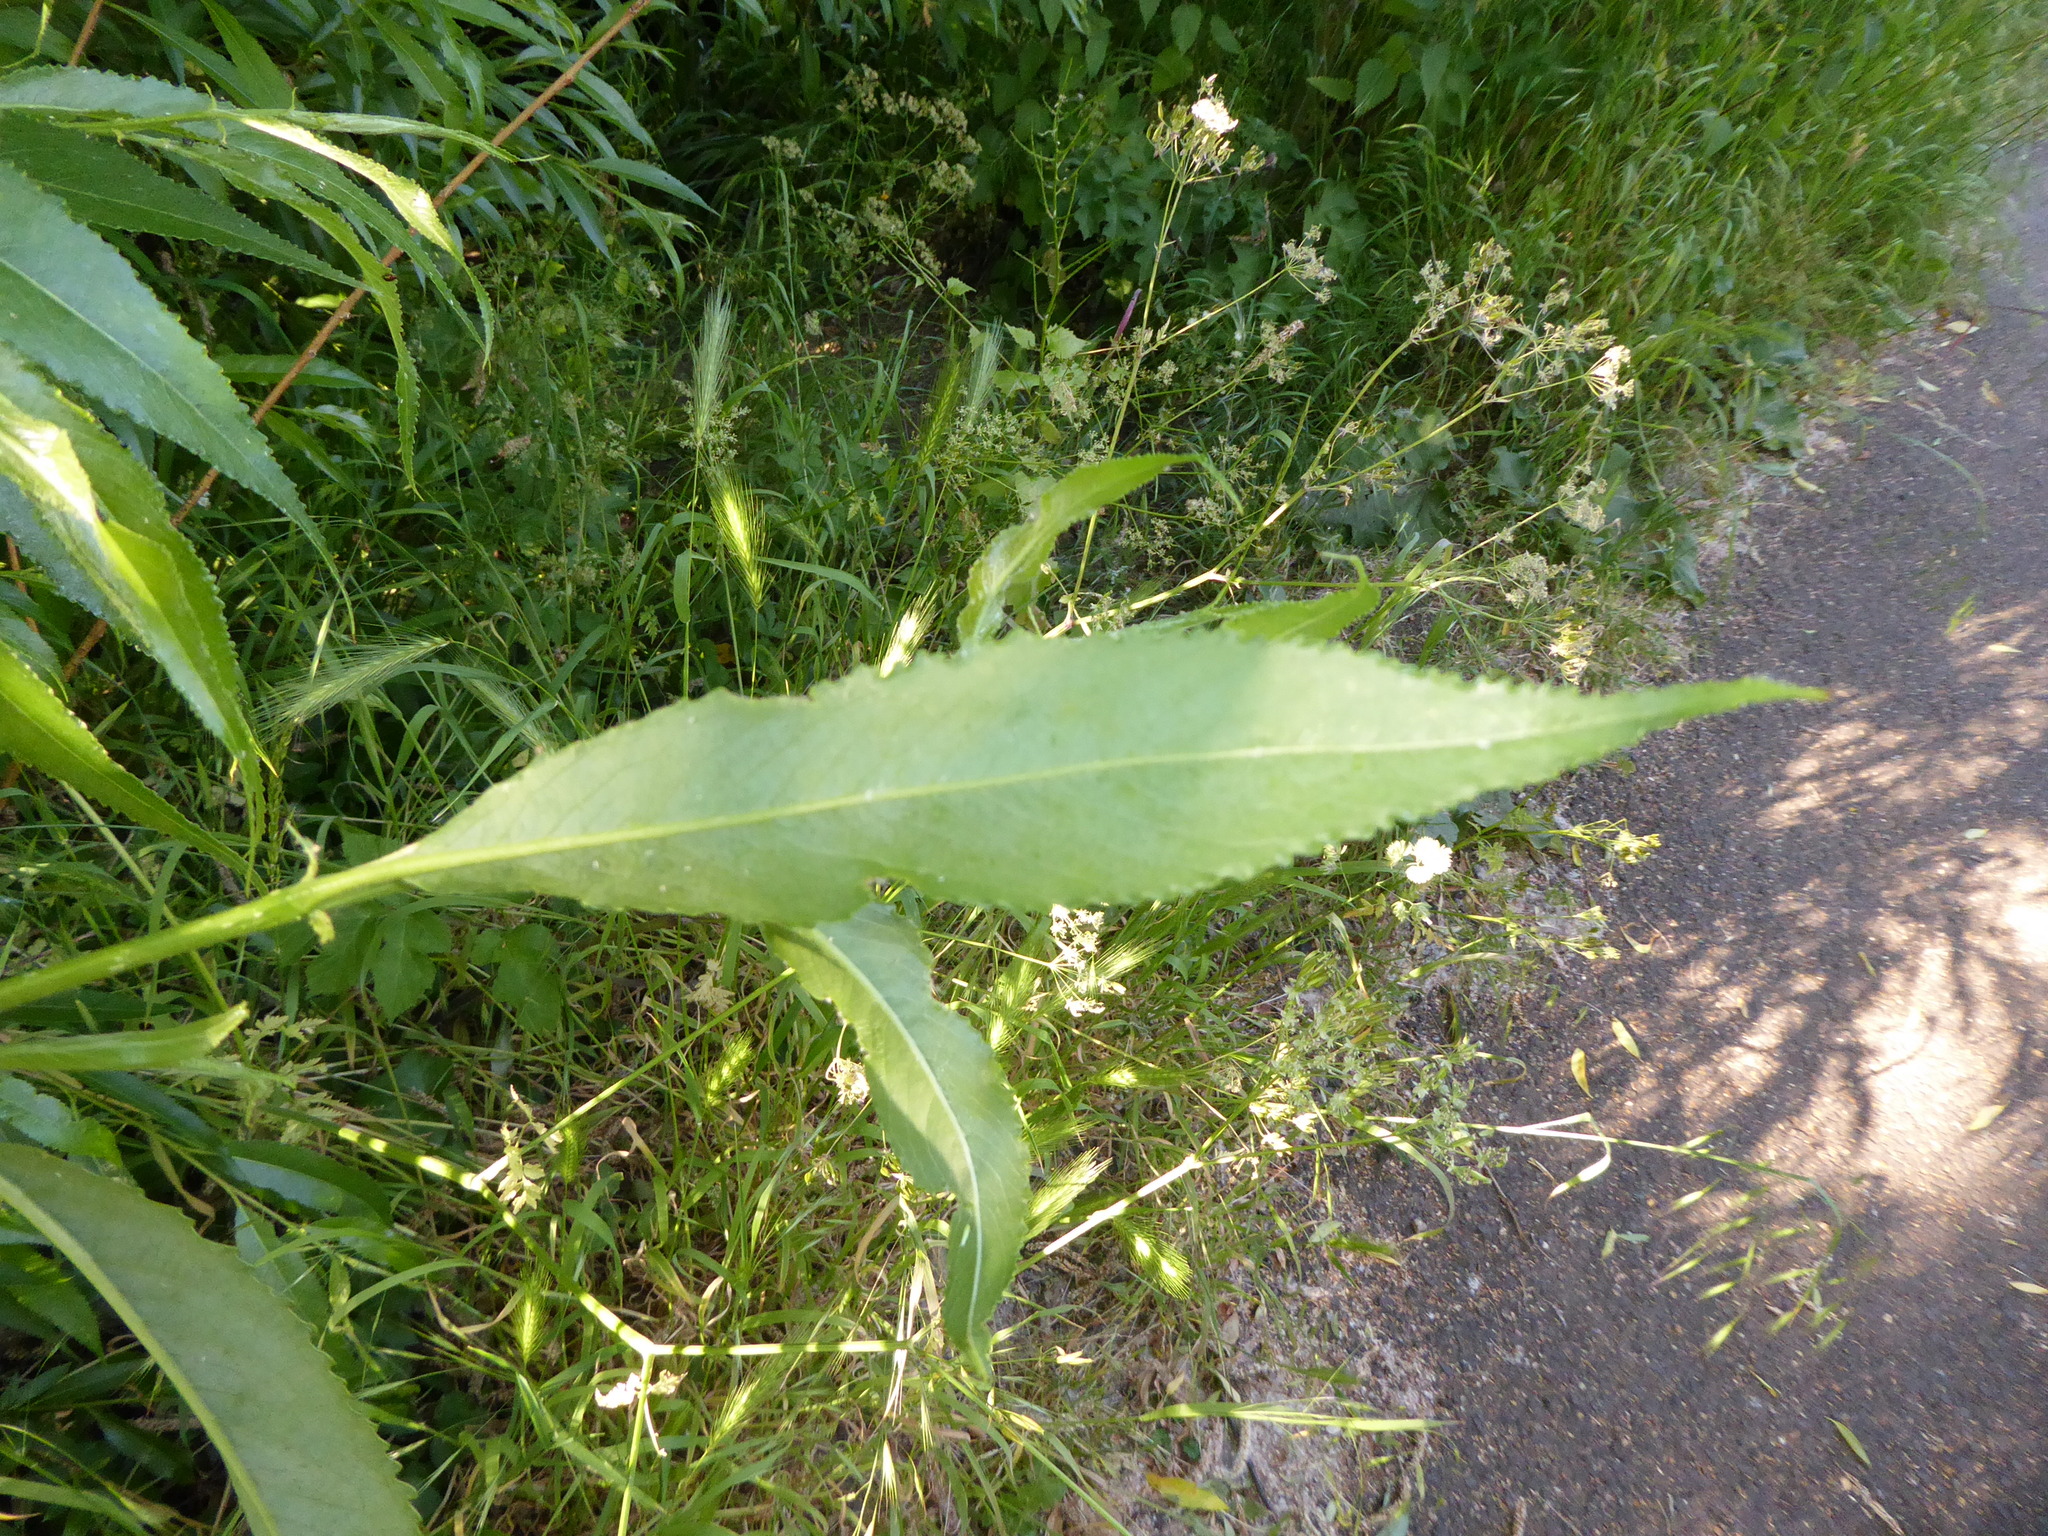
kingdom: Plantae
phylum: Tracheophyta
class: Magnoliopsida
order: Malpighiales
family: Salicaceae
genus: Salix
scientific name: Salix fragilis
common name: Crack willow
